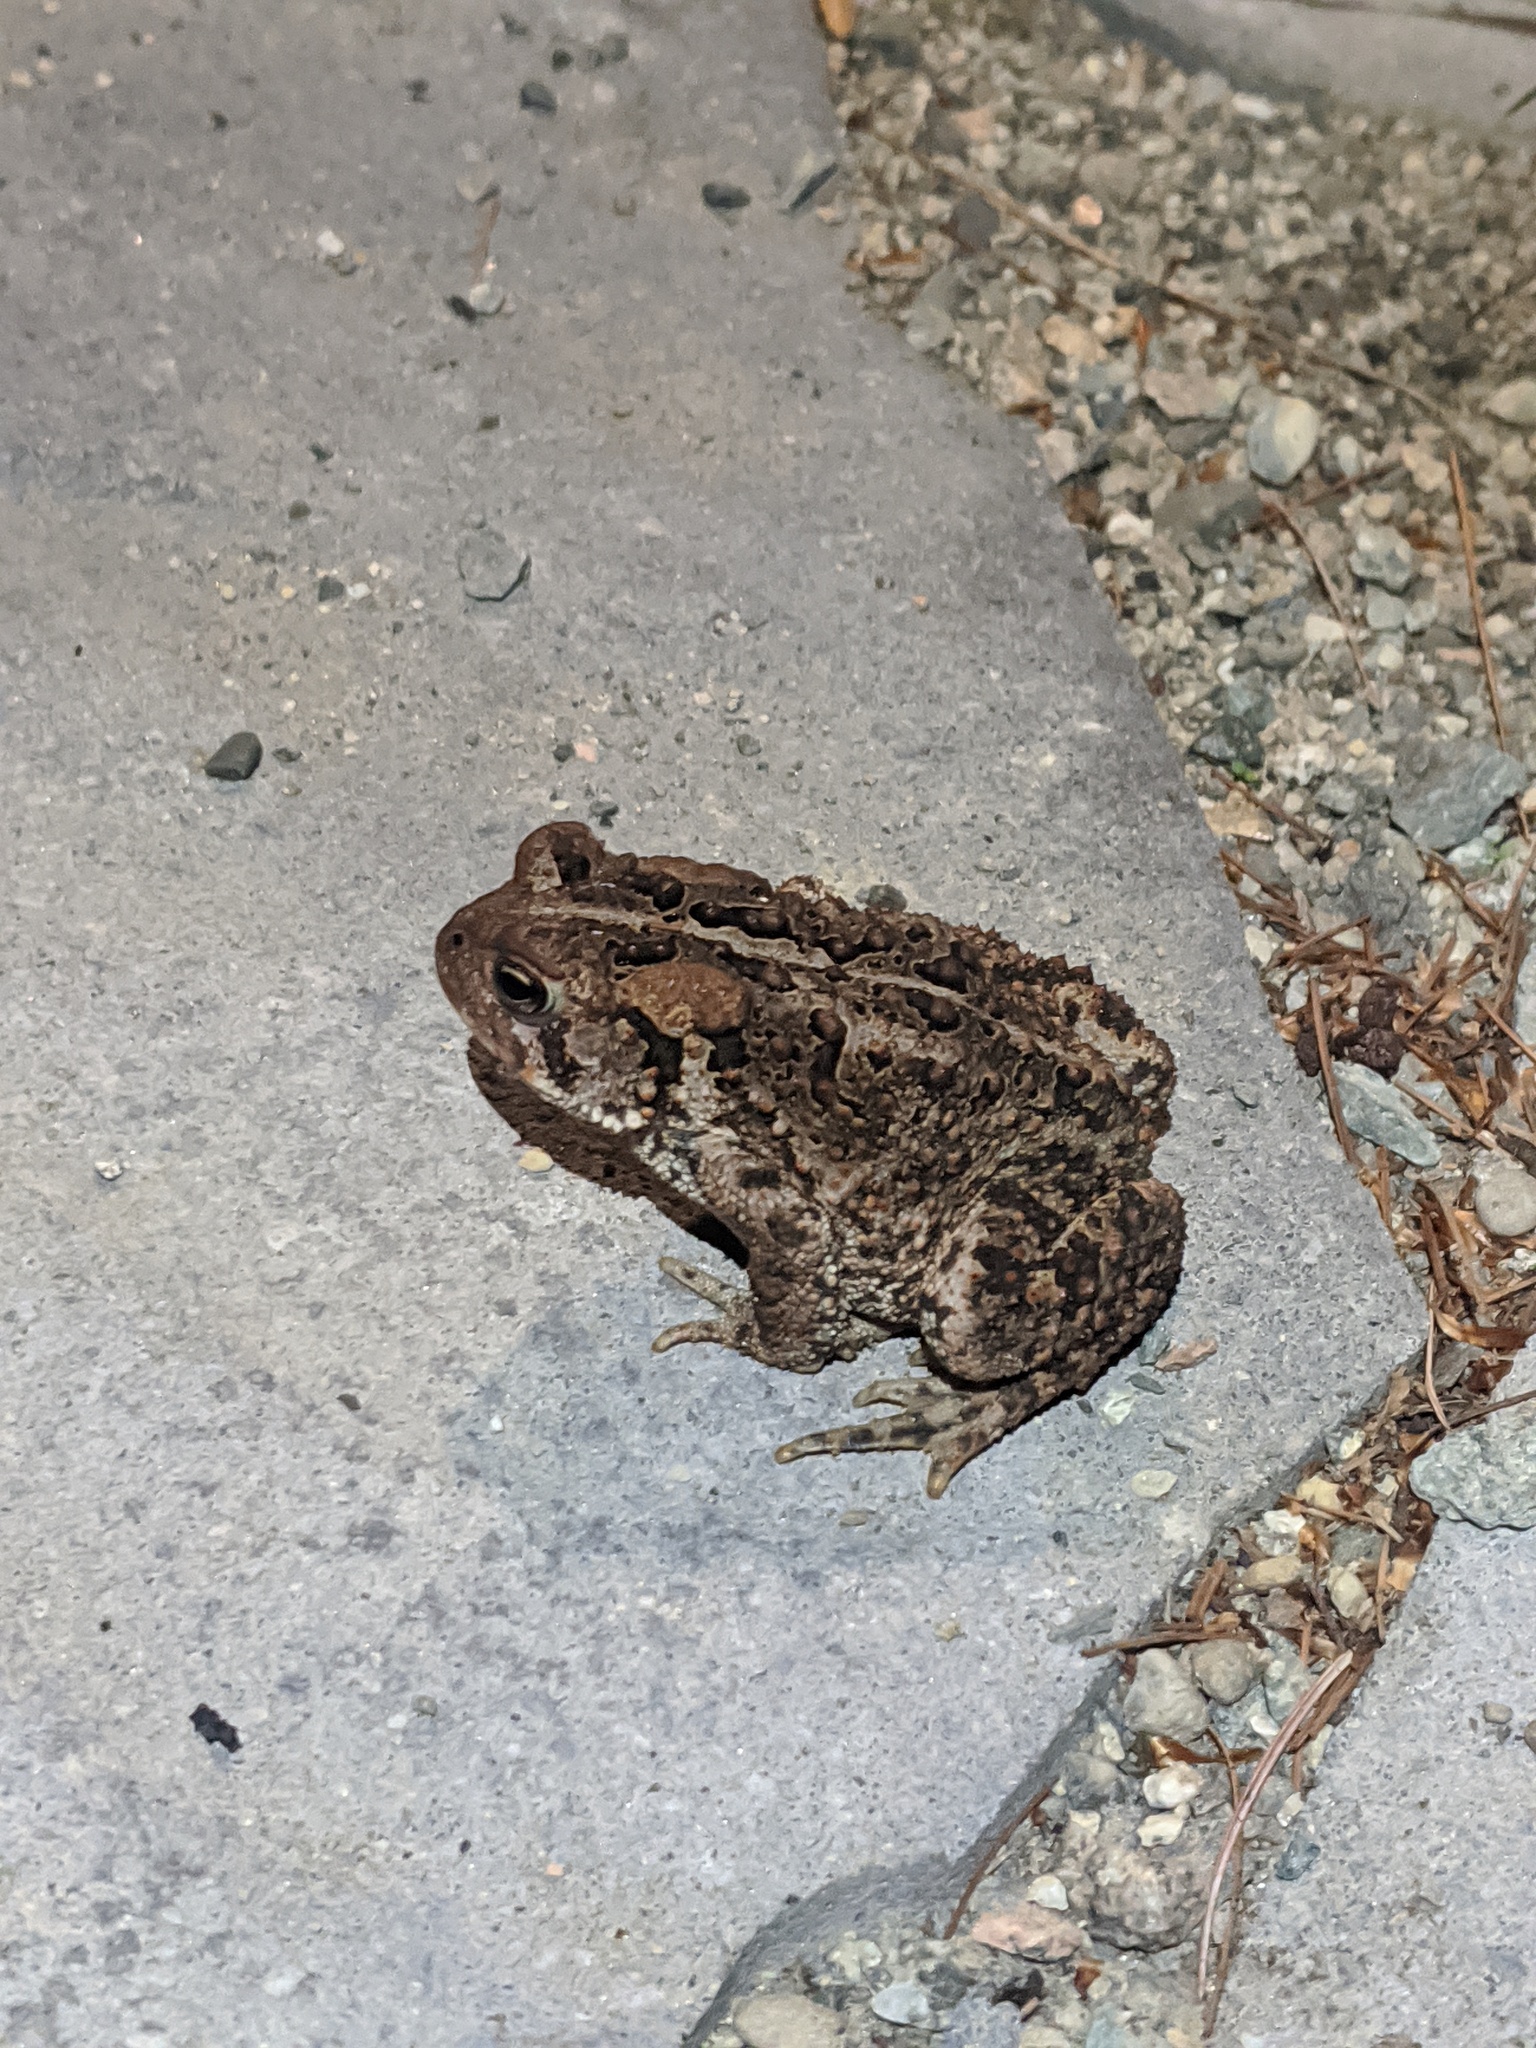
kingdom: Animalia
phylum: Chordata
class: Amphibia
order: Anura
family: Bufonidae
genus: Anaxyrus
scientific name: Anaxyrus americanus
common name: American toad
